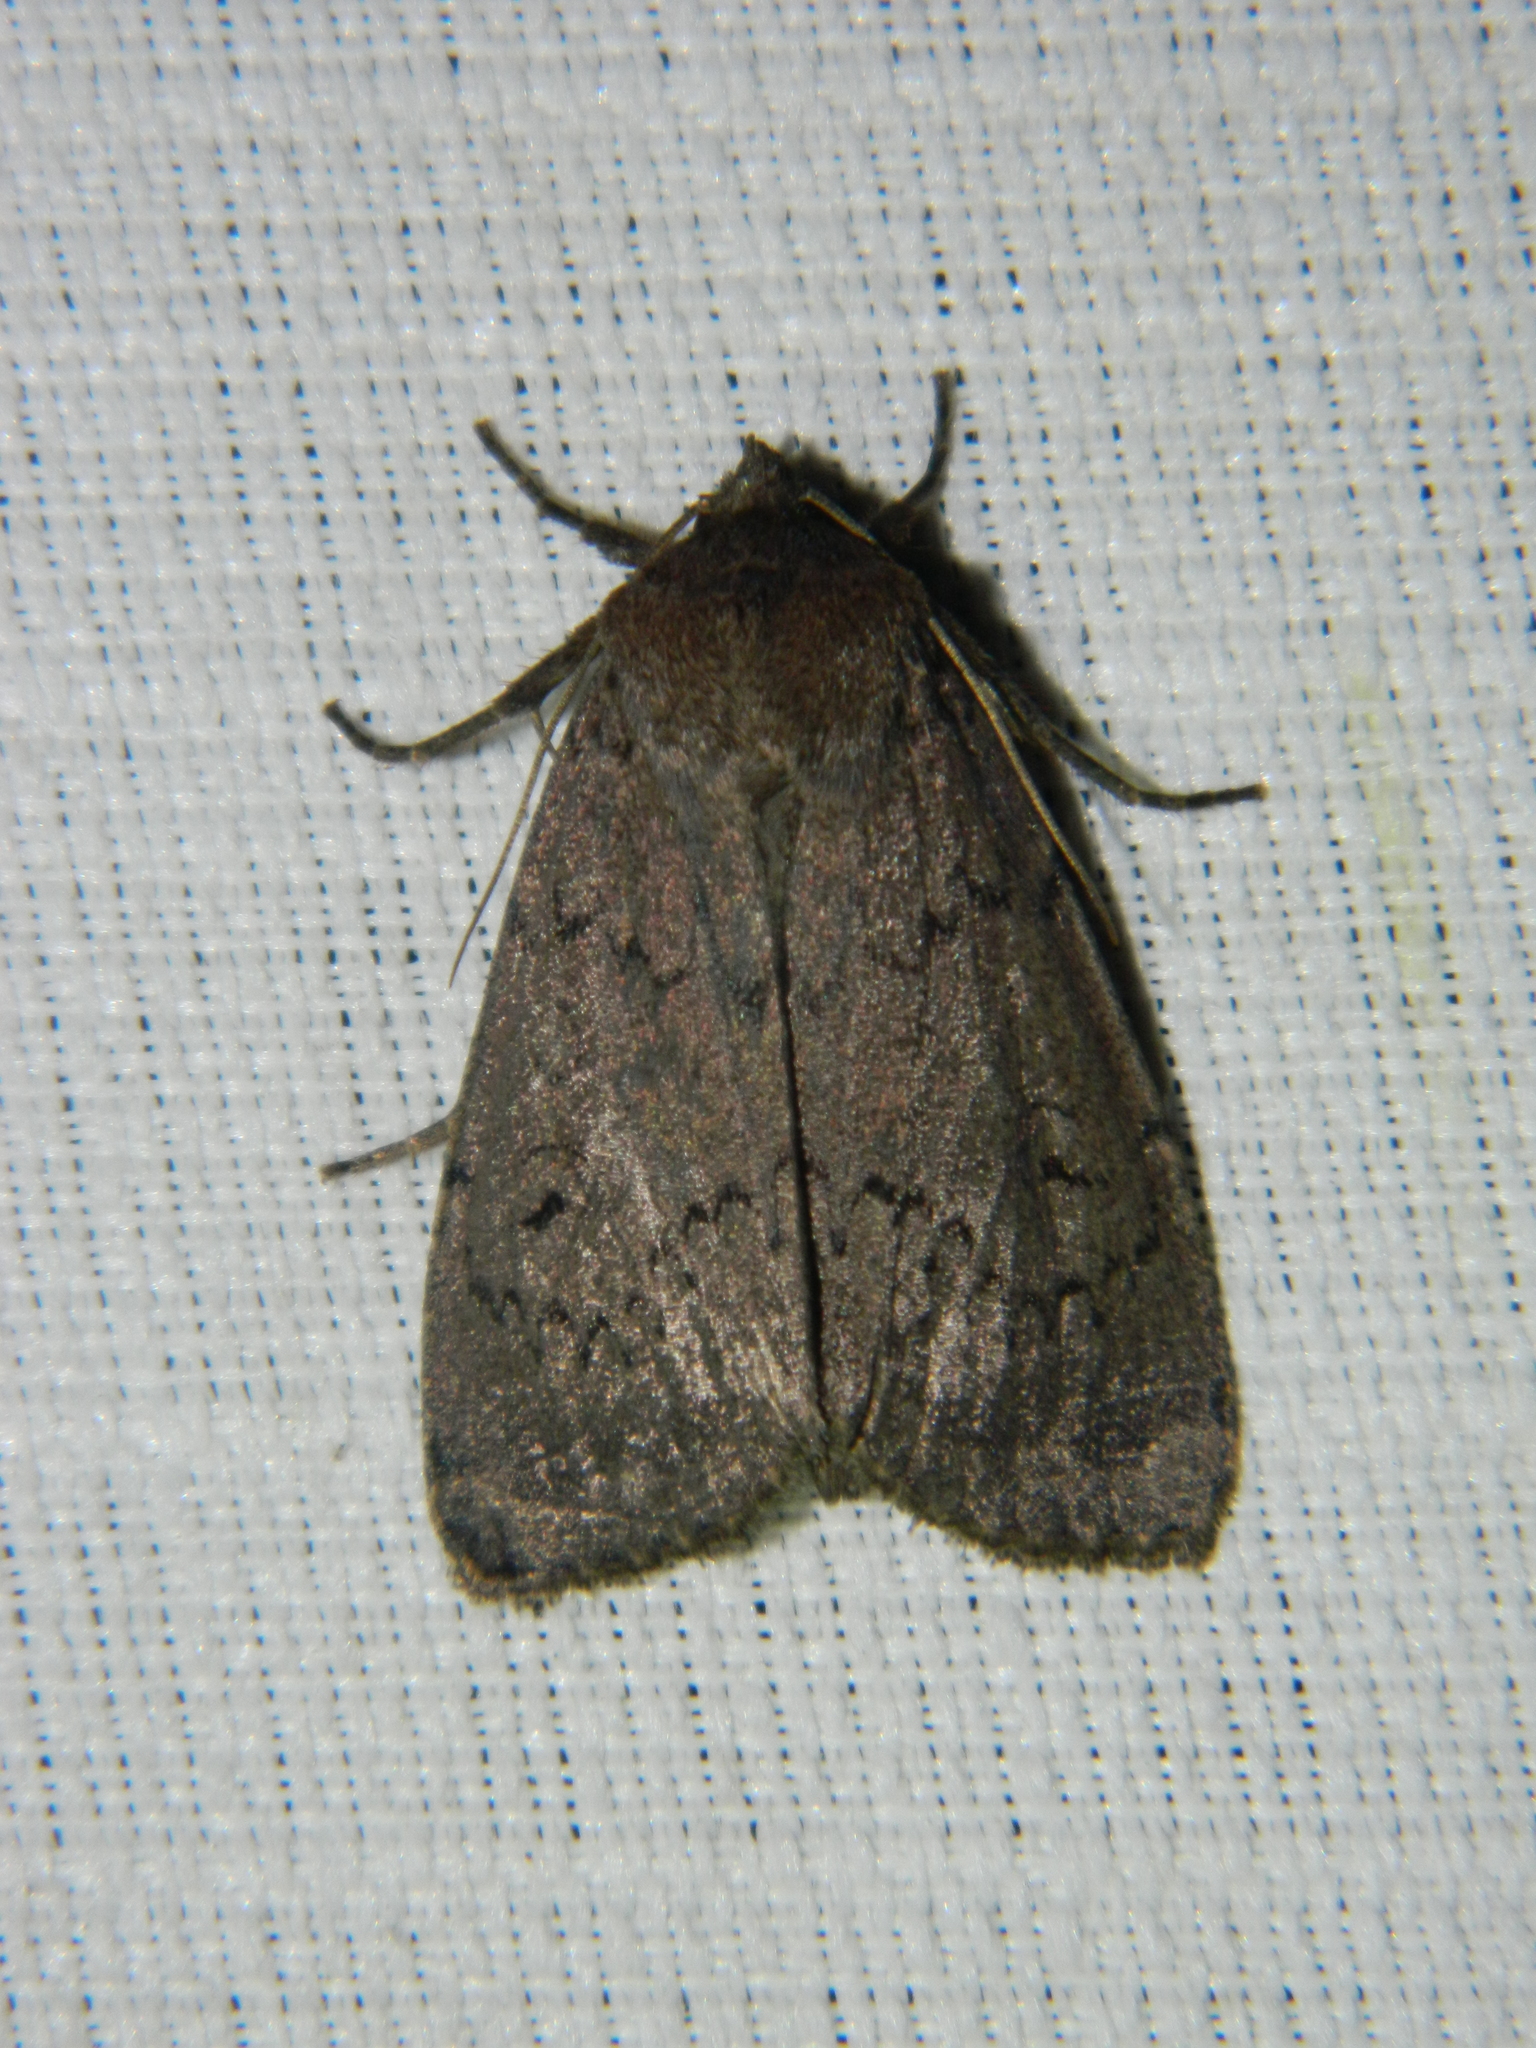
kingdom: Animalia
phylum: Arthropoda
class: Insecta
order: Lepidoptera
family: Noctuidae
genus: Graphiphora
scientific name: Graphiphora augur
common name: Double dart
